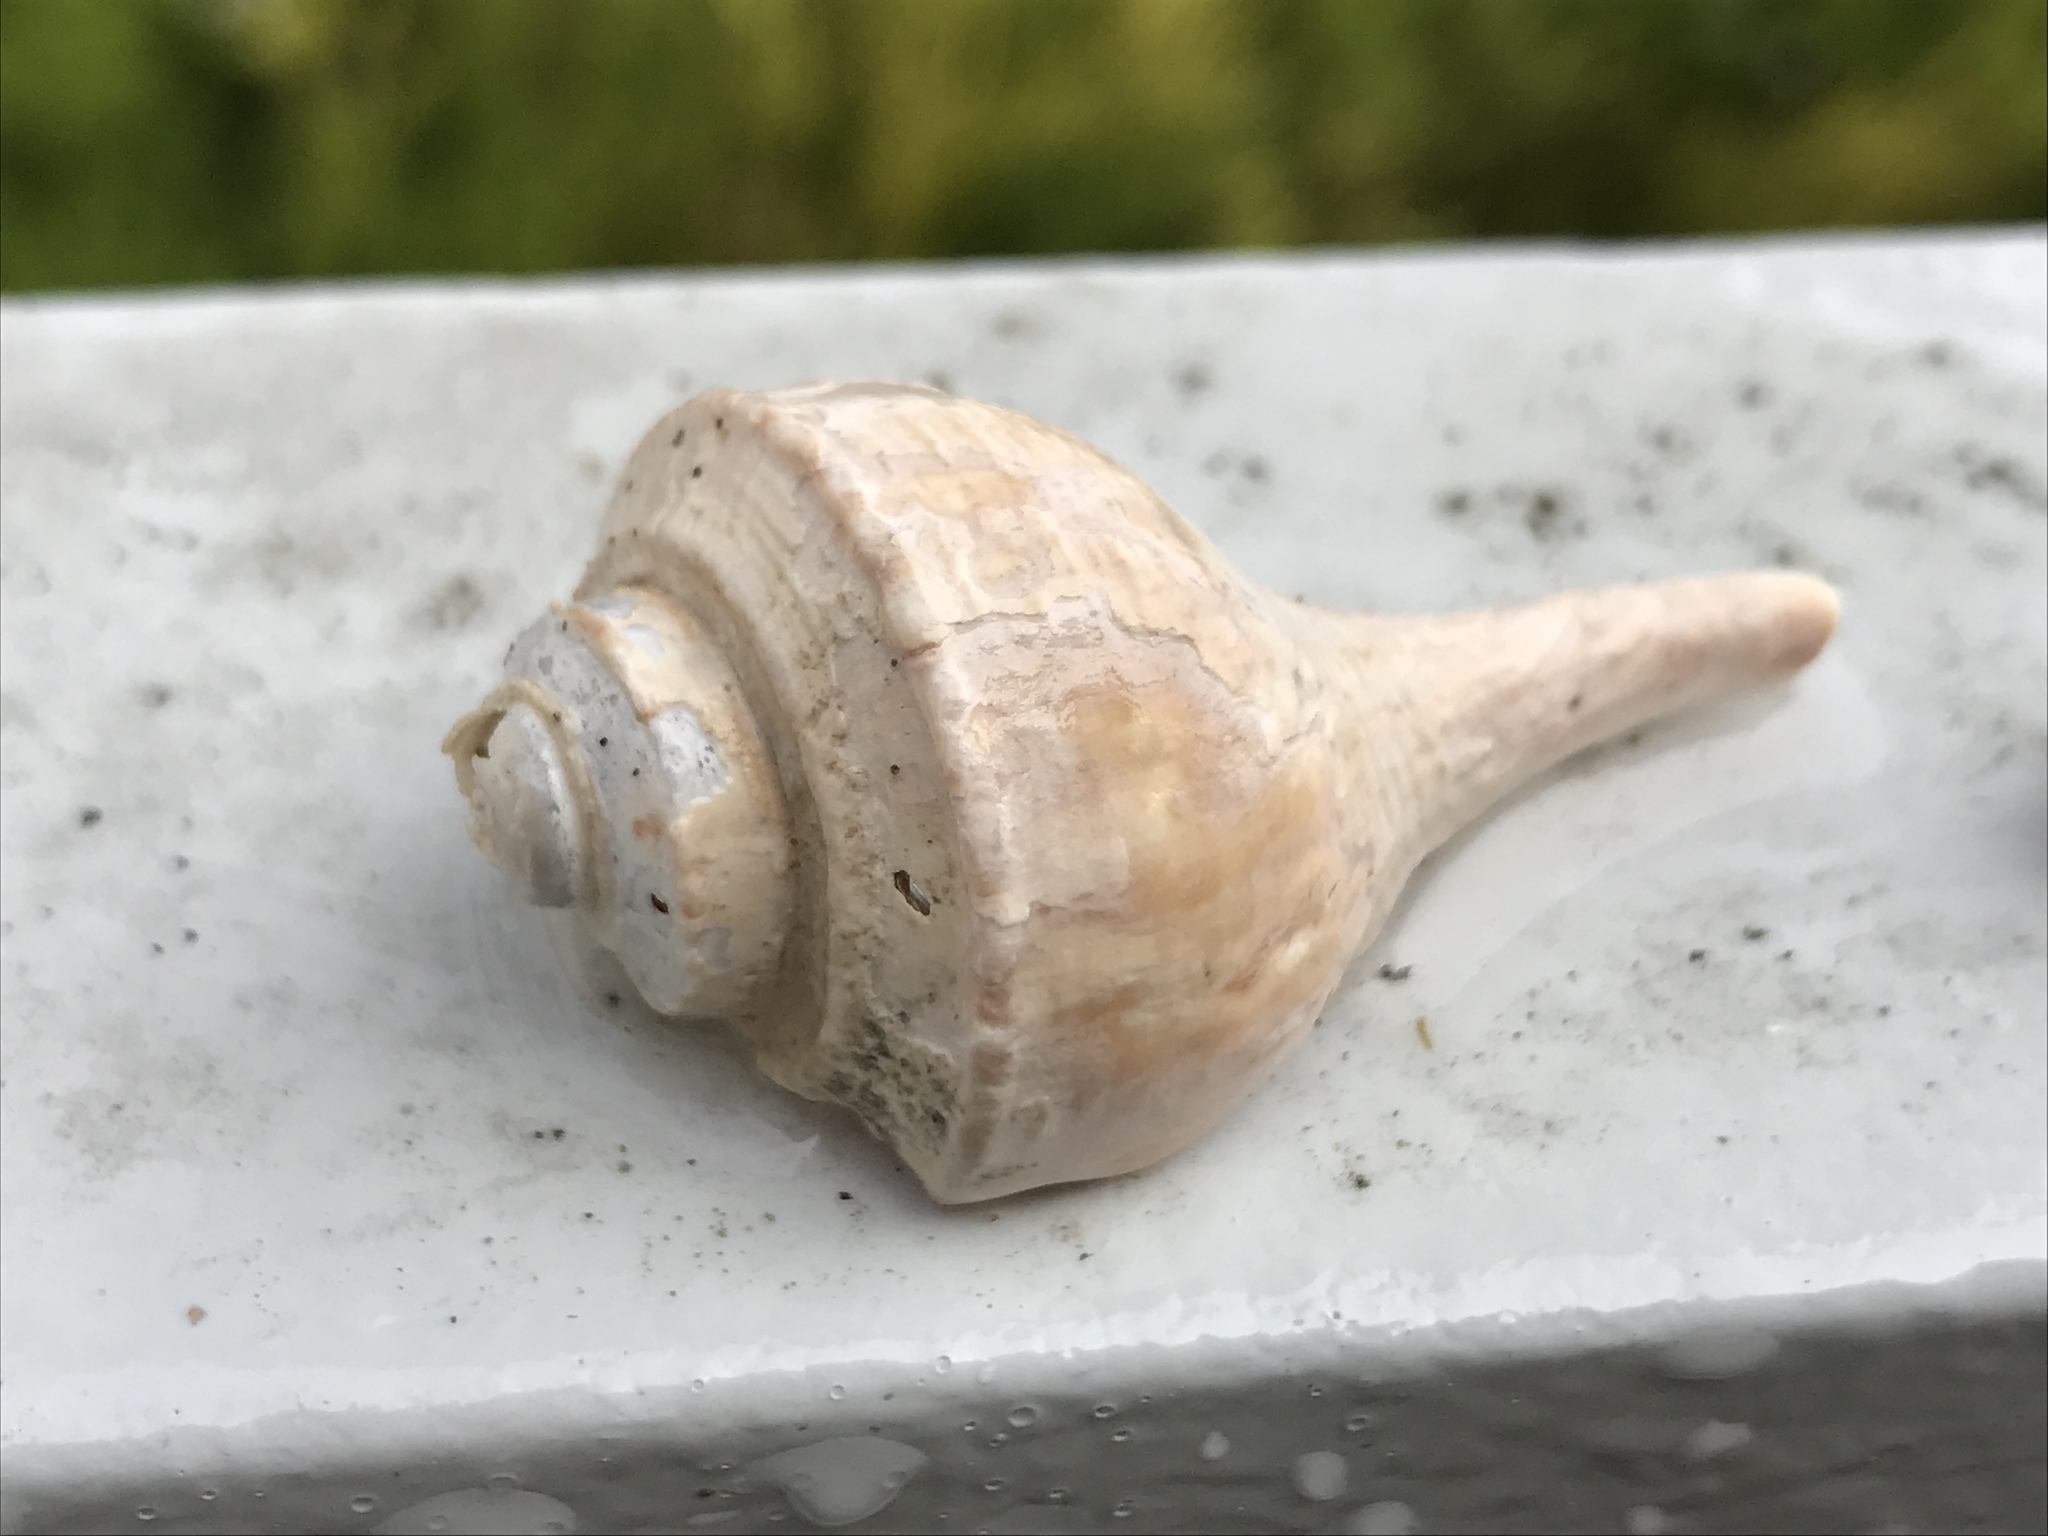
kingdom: Animalia
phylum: Mollusca
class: Gastropoda
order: Neogastropoda
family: Busyconidae
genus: Busycotypus
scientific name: Busycotypus canaliculatus
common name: Channeled whelk
